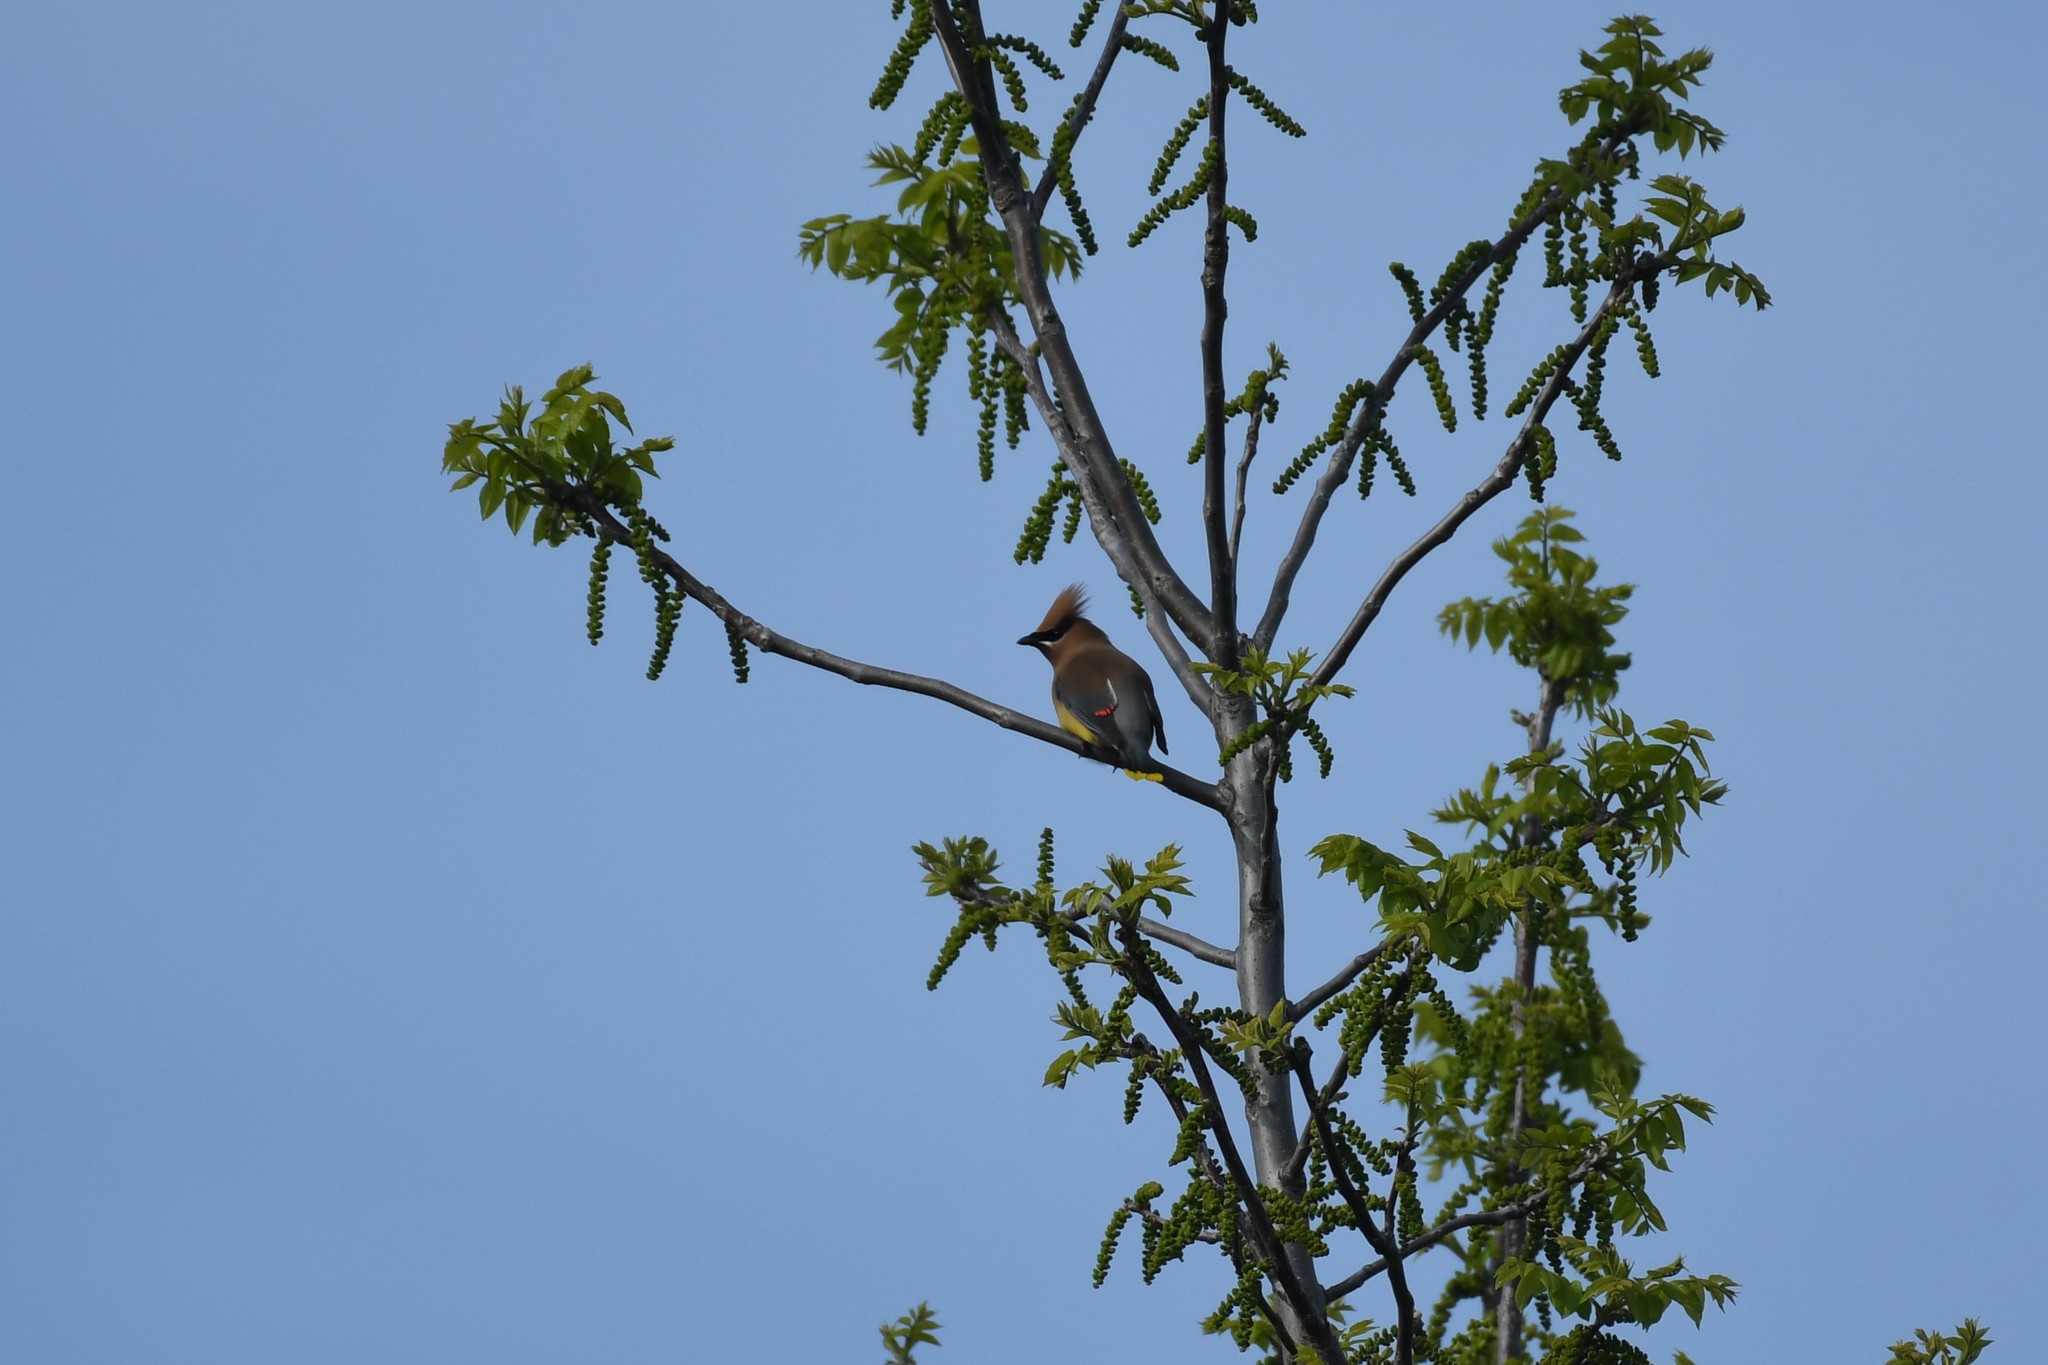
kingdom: Animalia
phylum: Chordata
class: Aves
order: Passeriformes
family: Bombycillidae
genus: Bombycilla
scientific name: Bombycilla cedrorum
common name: Cedar waxwing
